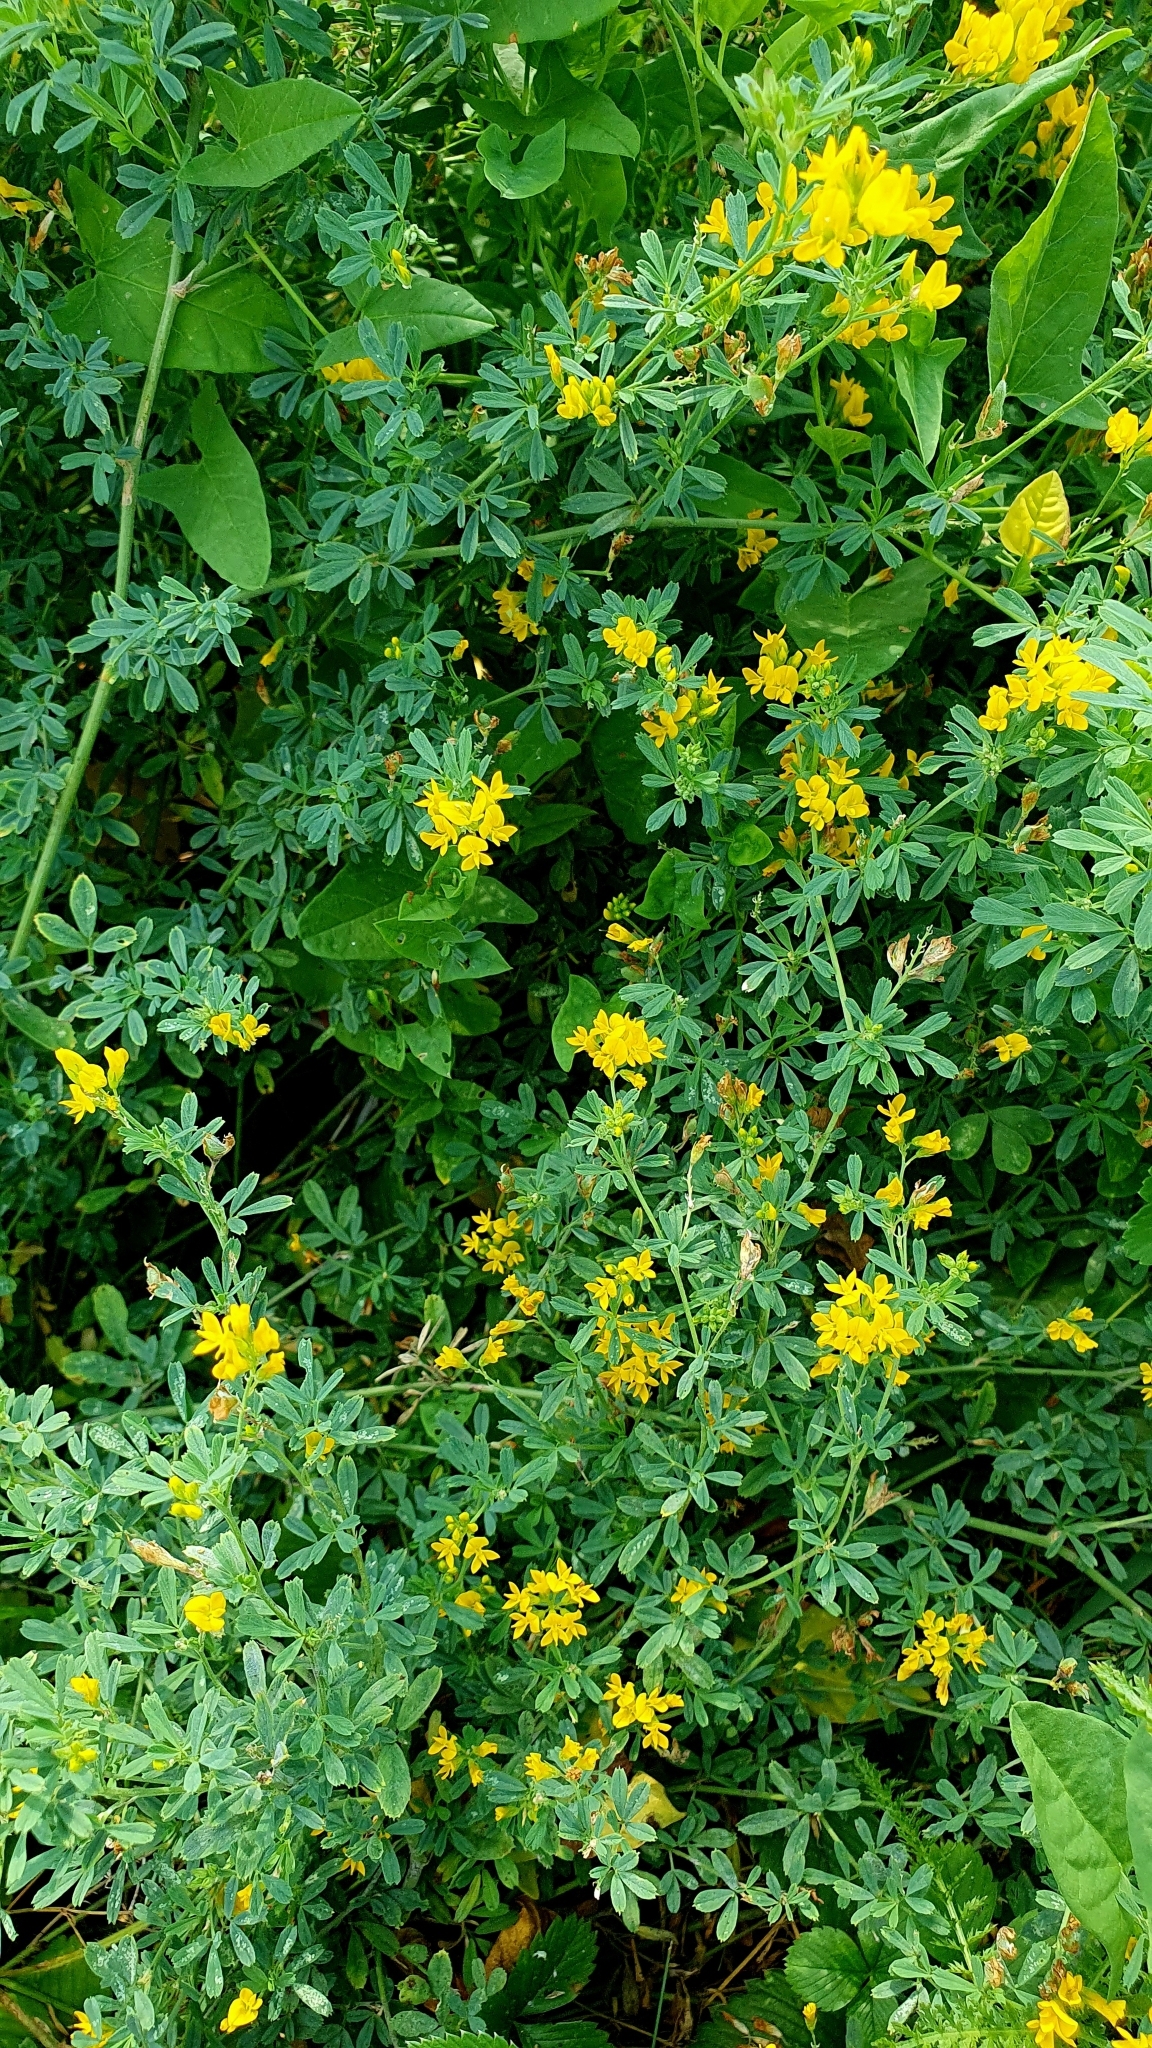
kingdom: Plantae
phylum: Tracheophyta
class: Magnoliopsida
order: Fabales
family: Fabaceae
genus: Medicago
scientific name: Medicago falcata
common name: Sickle medick
